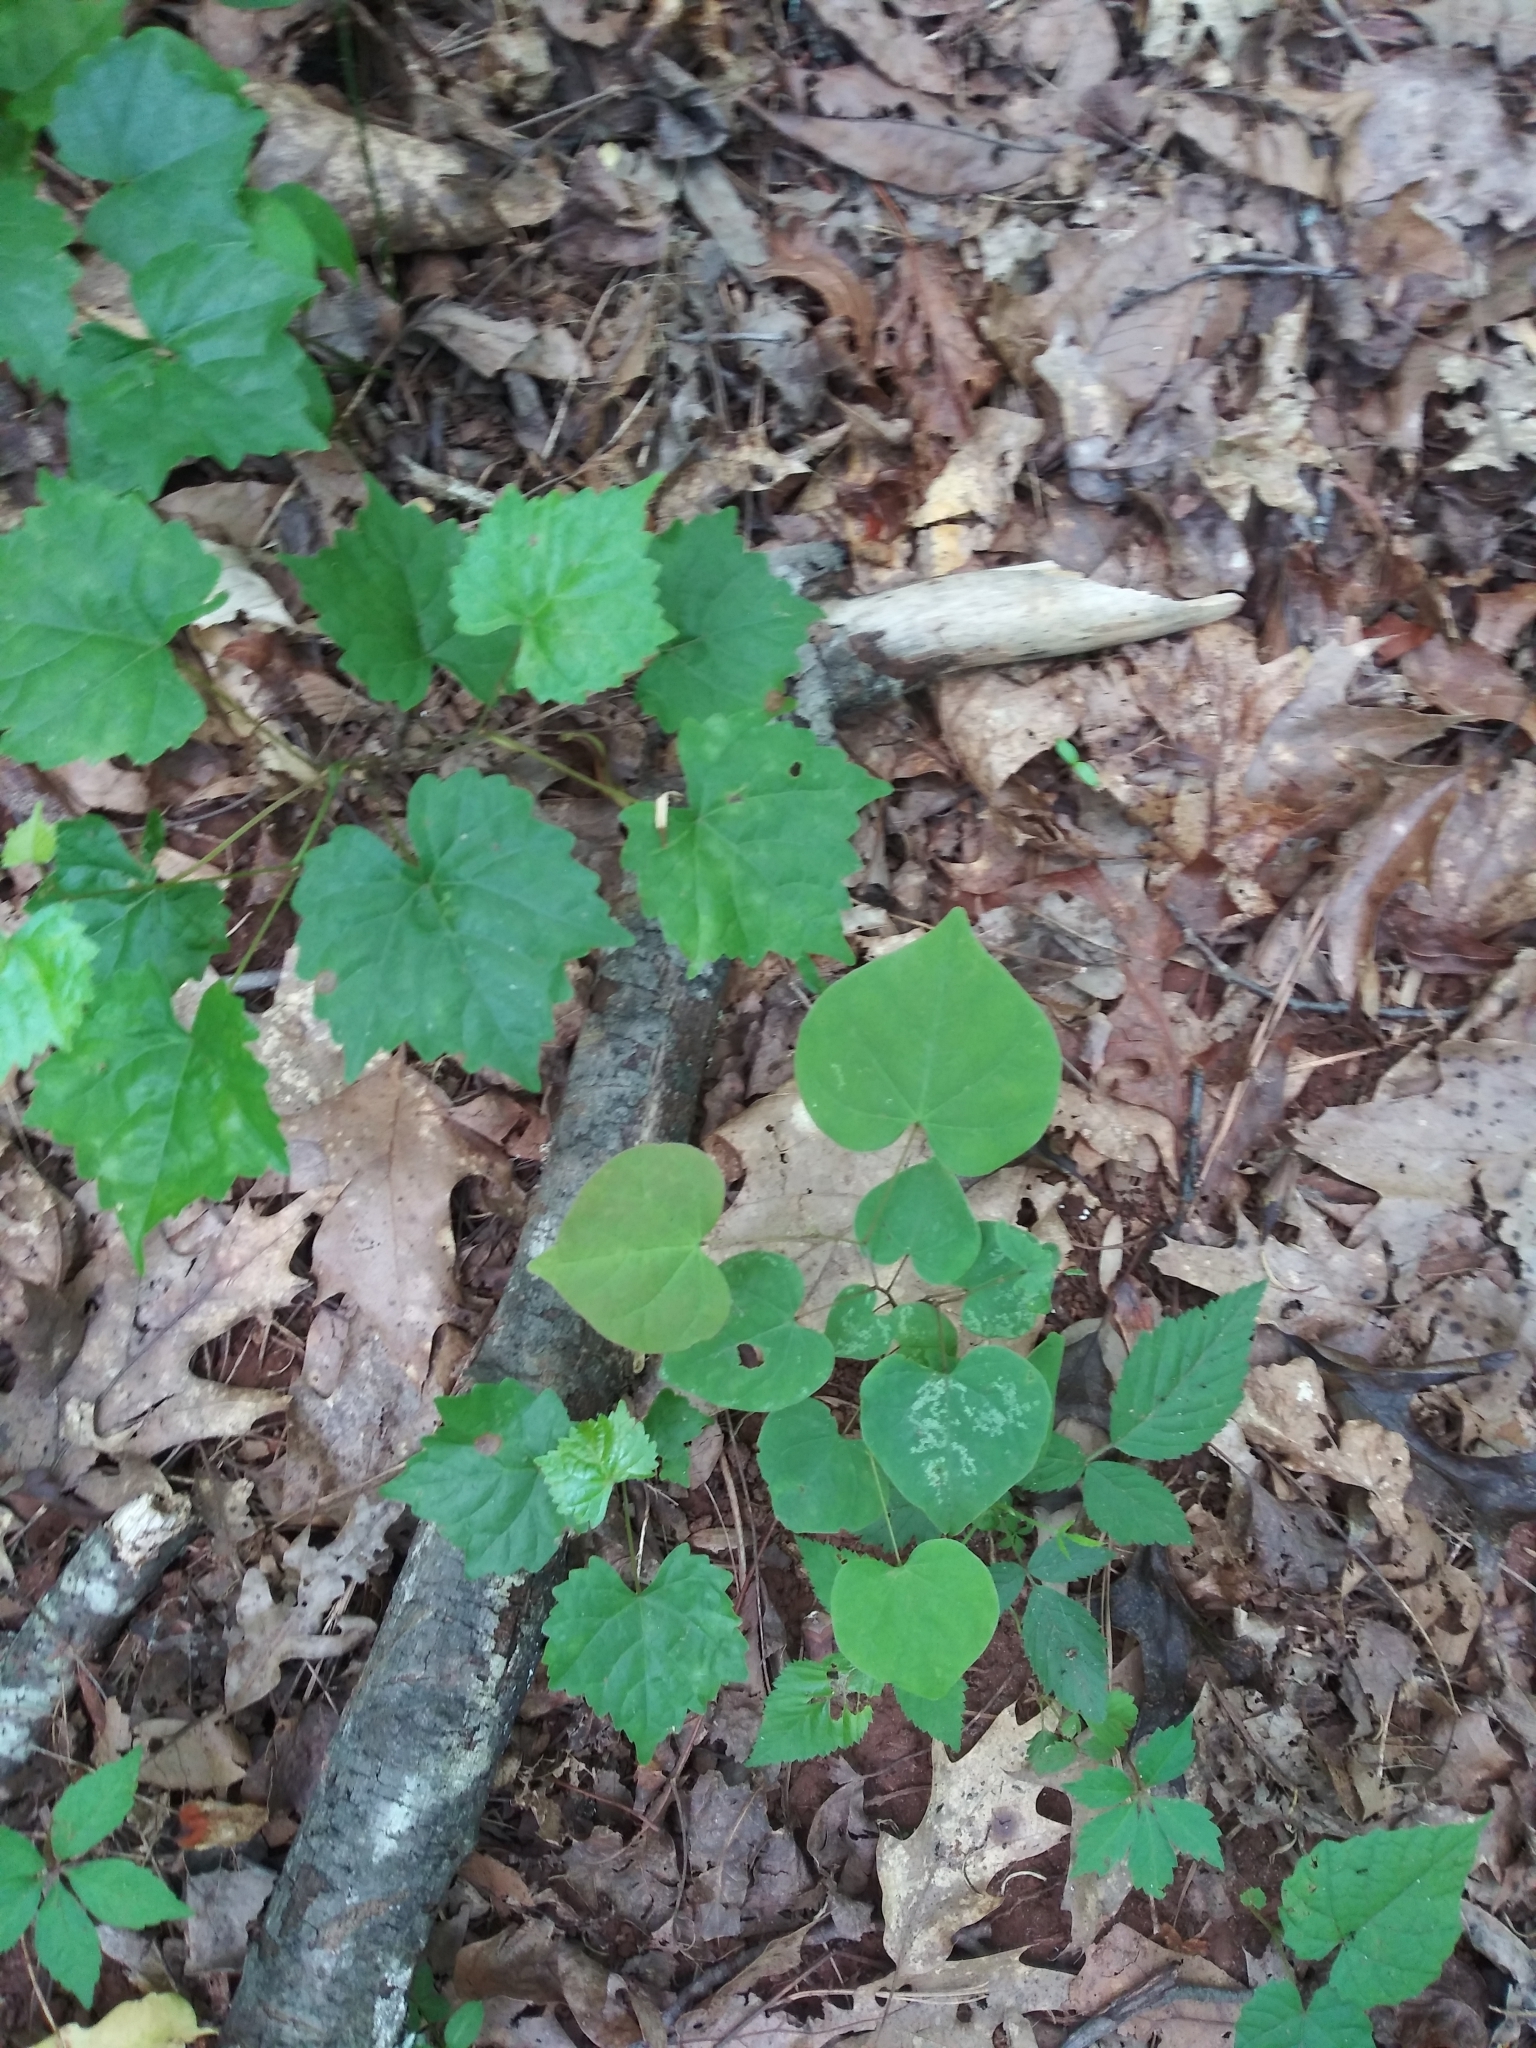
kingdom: Plantae
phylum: Tracheophyta
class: Magnoliopsida
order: Fabales
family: Fabaceae
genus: Cercis
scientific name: Cercis canadensis
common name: Eastern redbud
